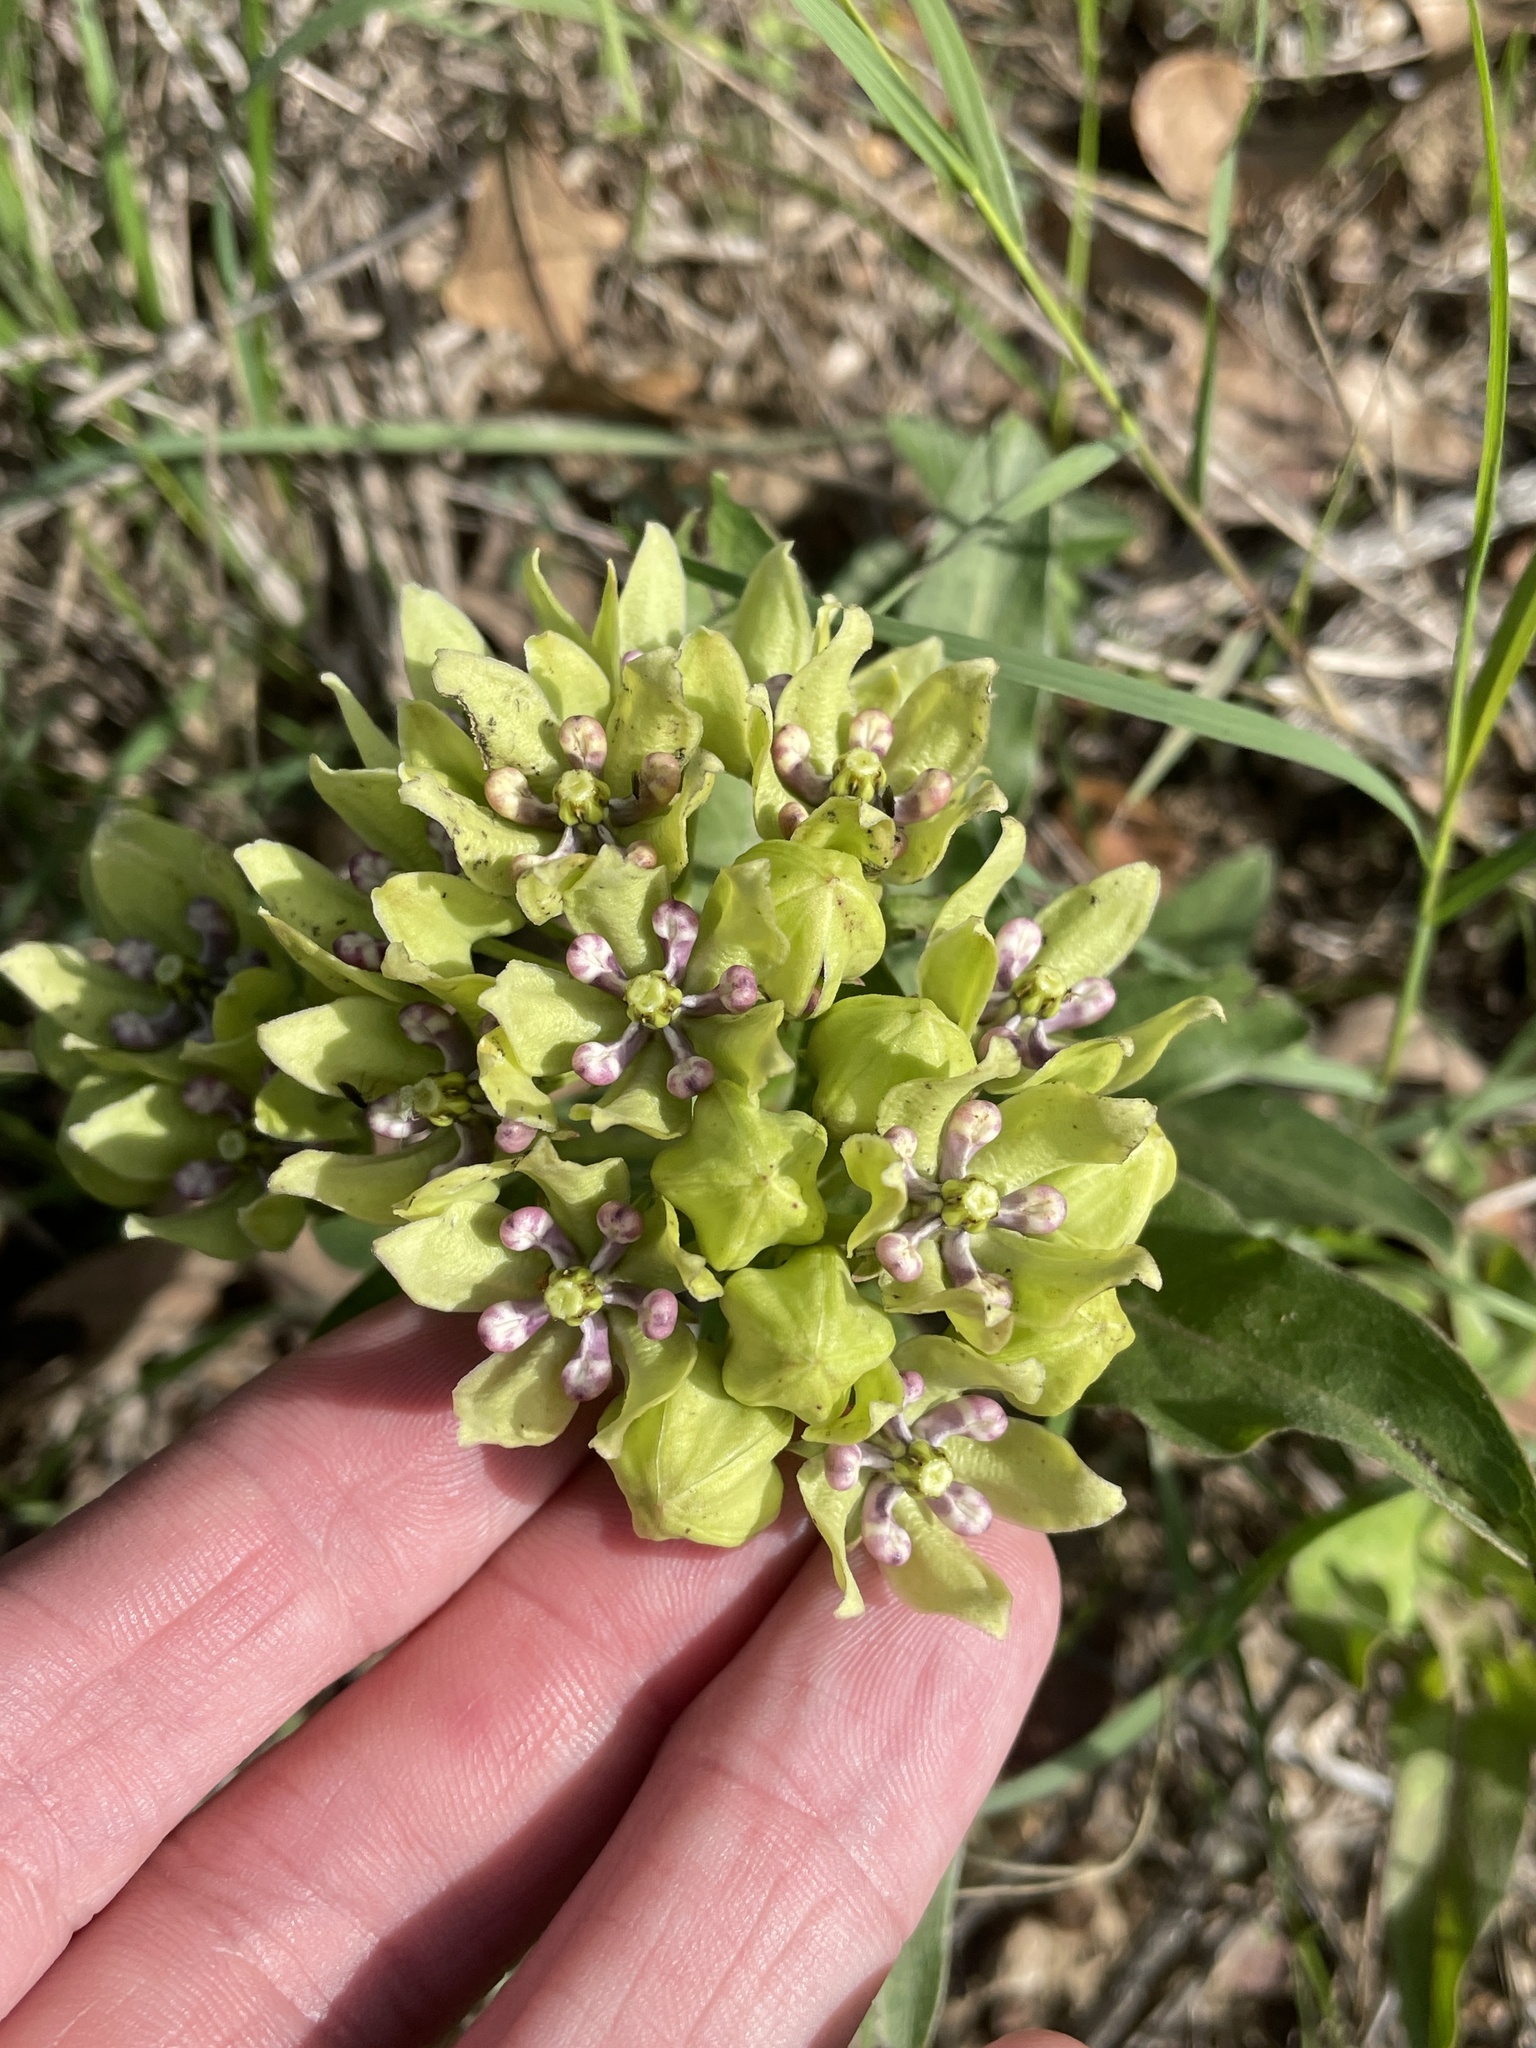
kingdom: Plantae
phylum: Tracheophyta
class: Magnoliopsida
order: Gentianales
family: Apocynaceae
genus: Asclepias
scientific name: Asclepias viridis
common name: Antelope-horns
